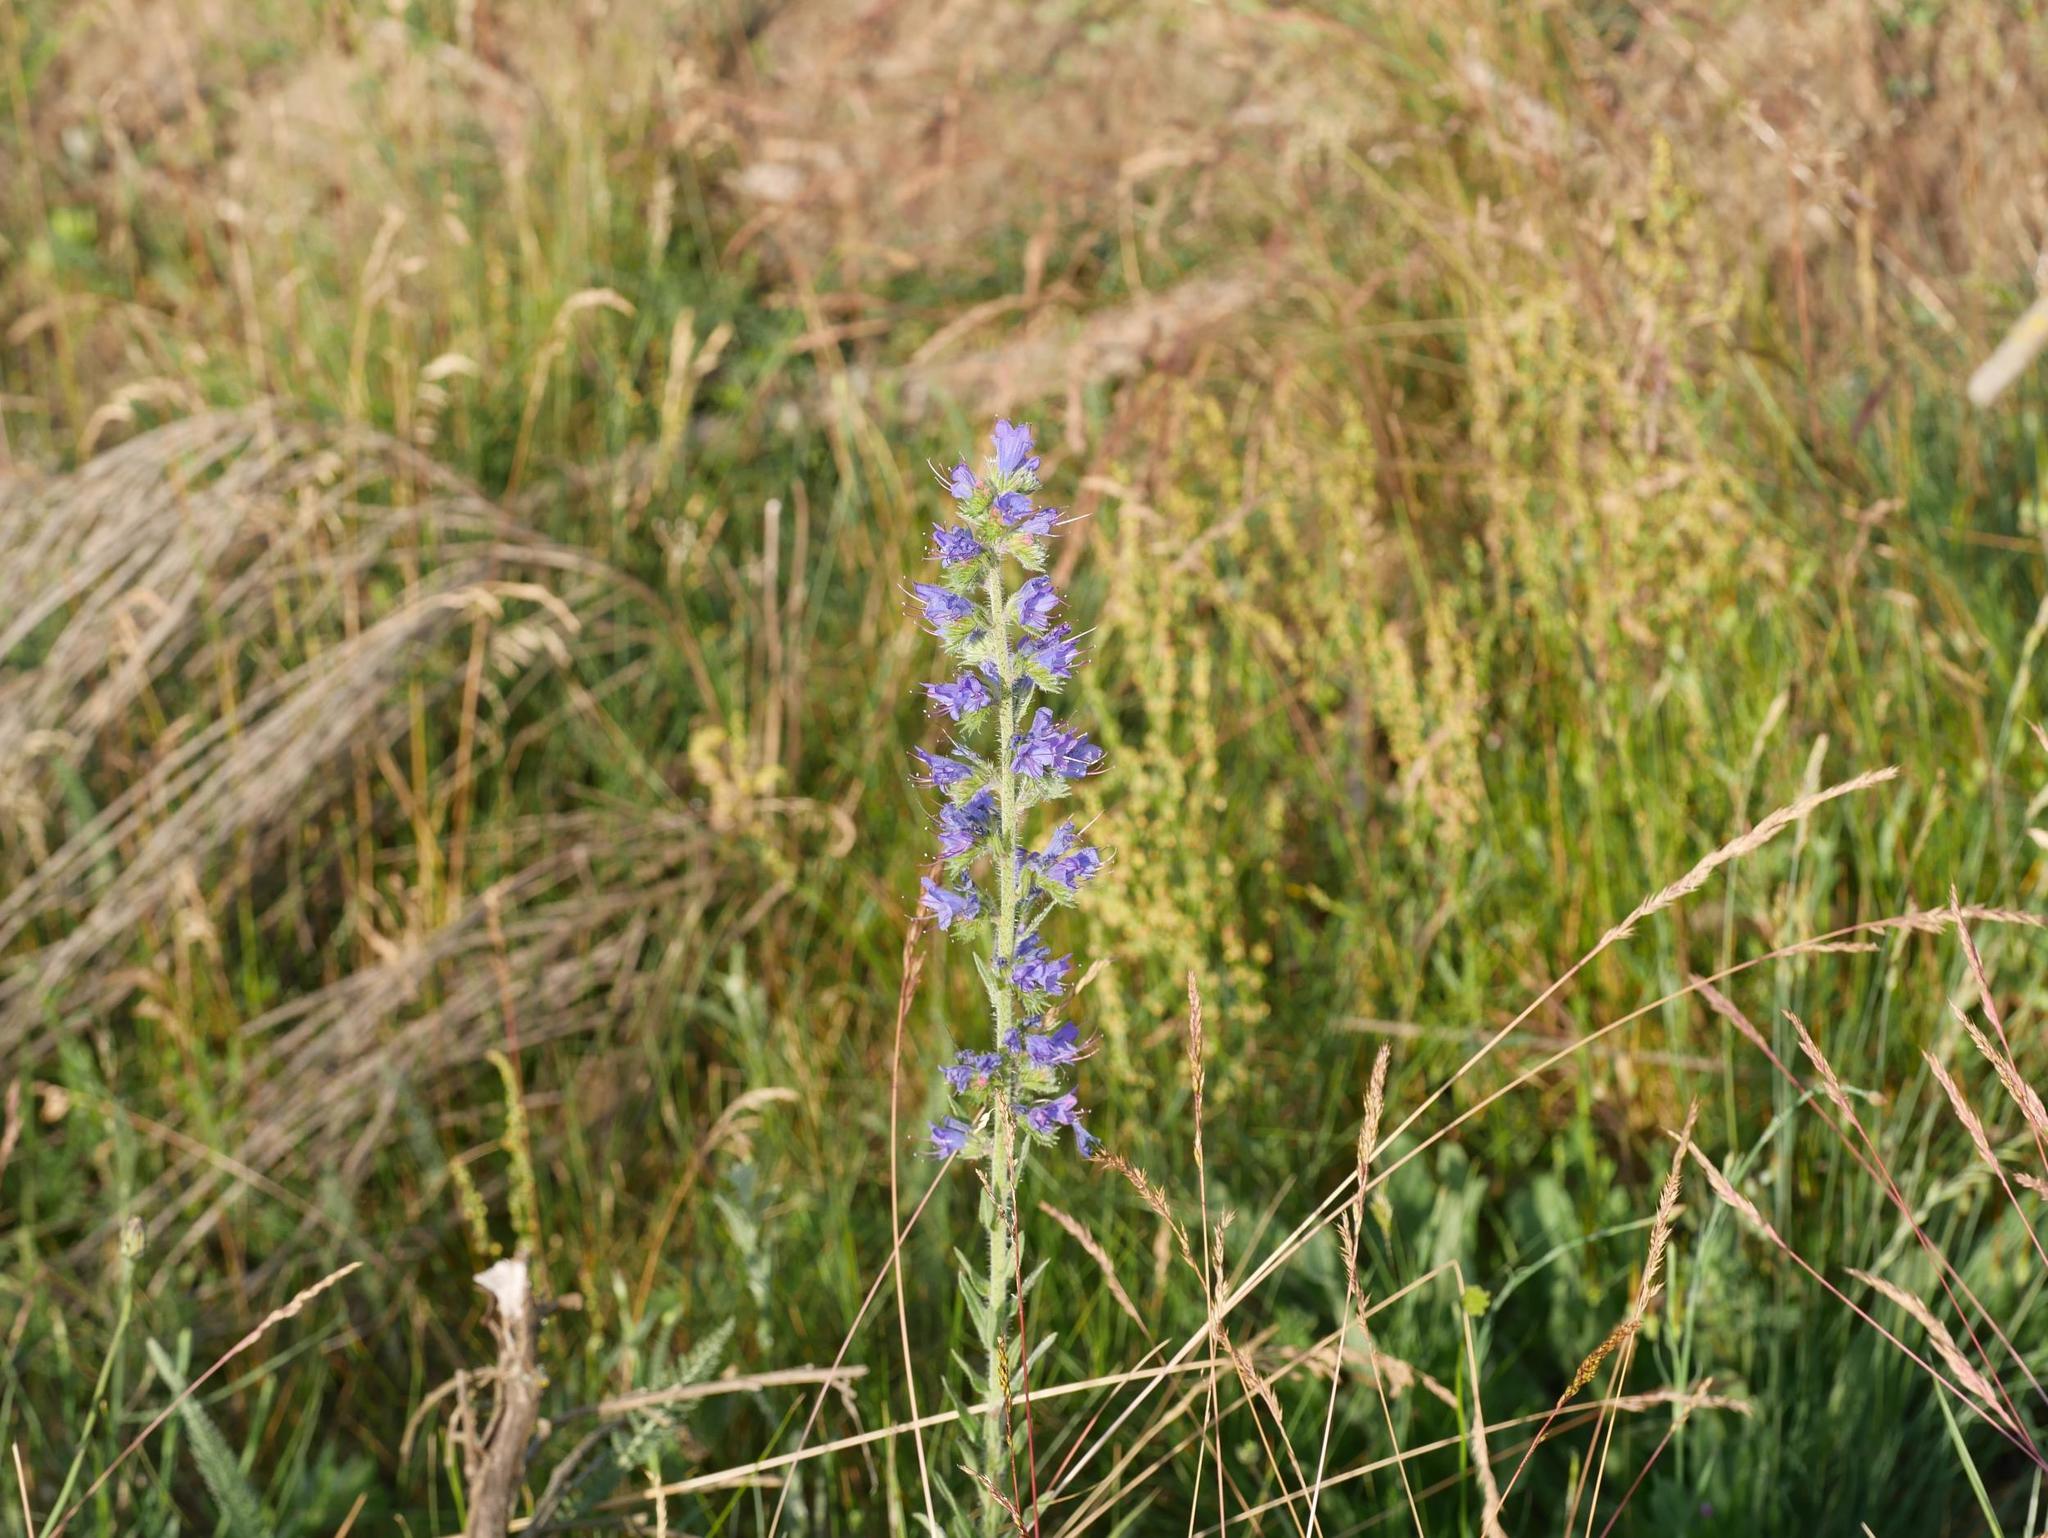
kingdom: Plantae
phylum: Tracheophyta
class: Magnoliopsida
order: Boraginales
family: Boraginaceae
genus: Echium
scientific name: Echium vulgare
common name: Common viper's bugloss
